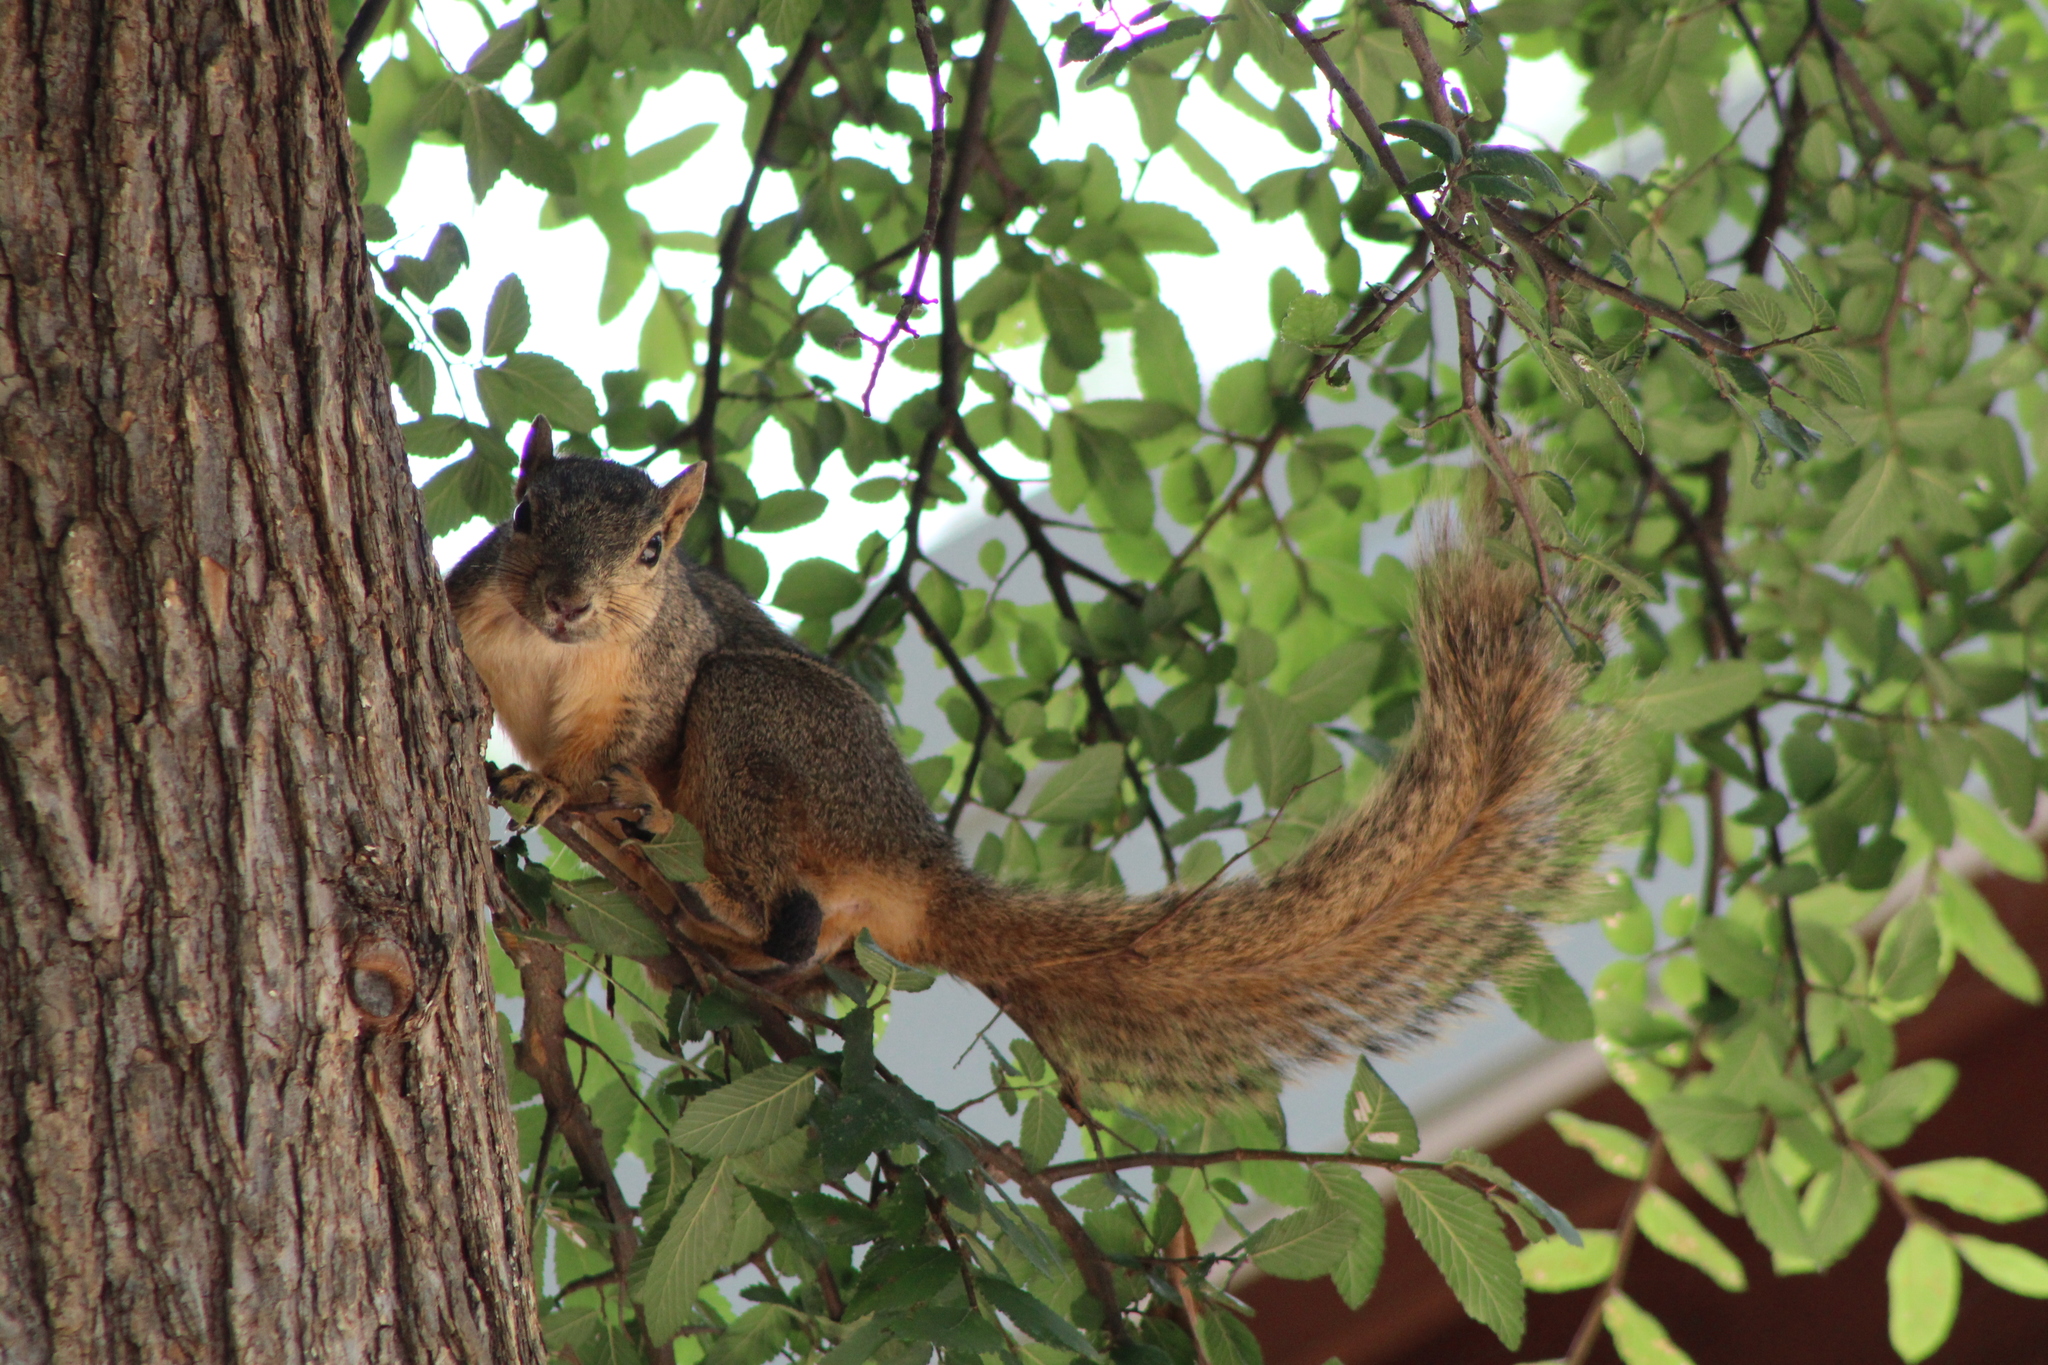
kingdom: Animalia
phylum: Chordata
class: Mammalia
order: Rodentia
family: Sciuridae
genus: Sciurus
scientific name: Sciurus niger
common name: Fox squirrel
